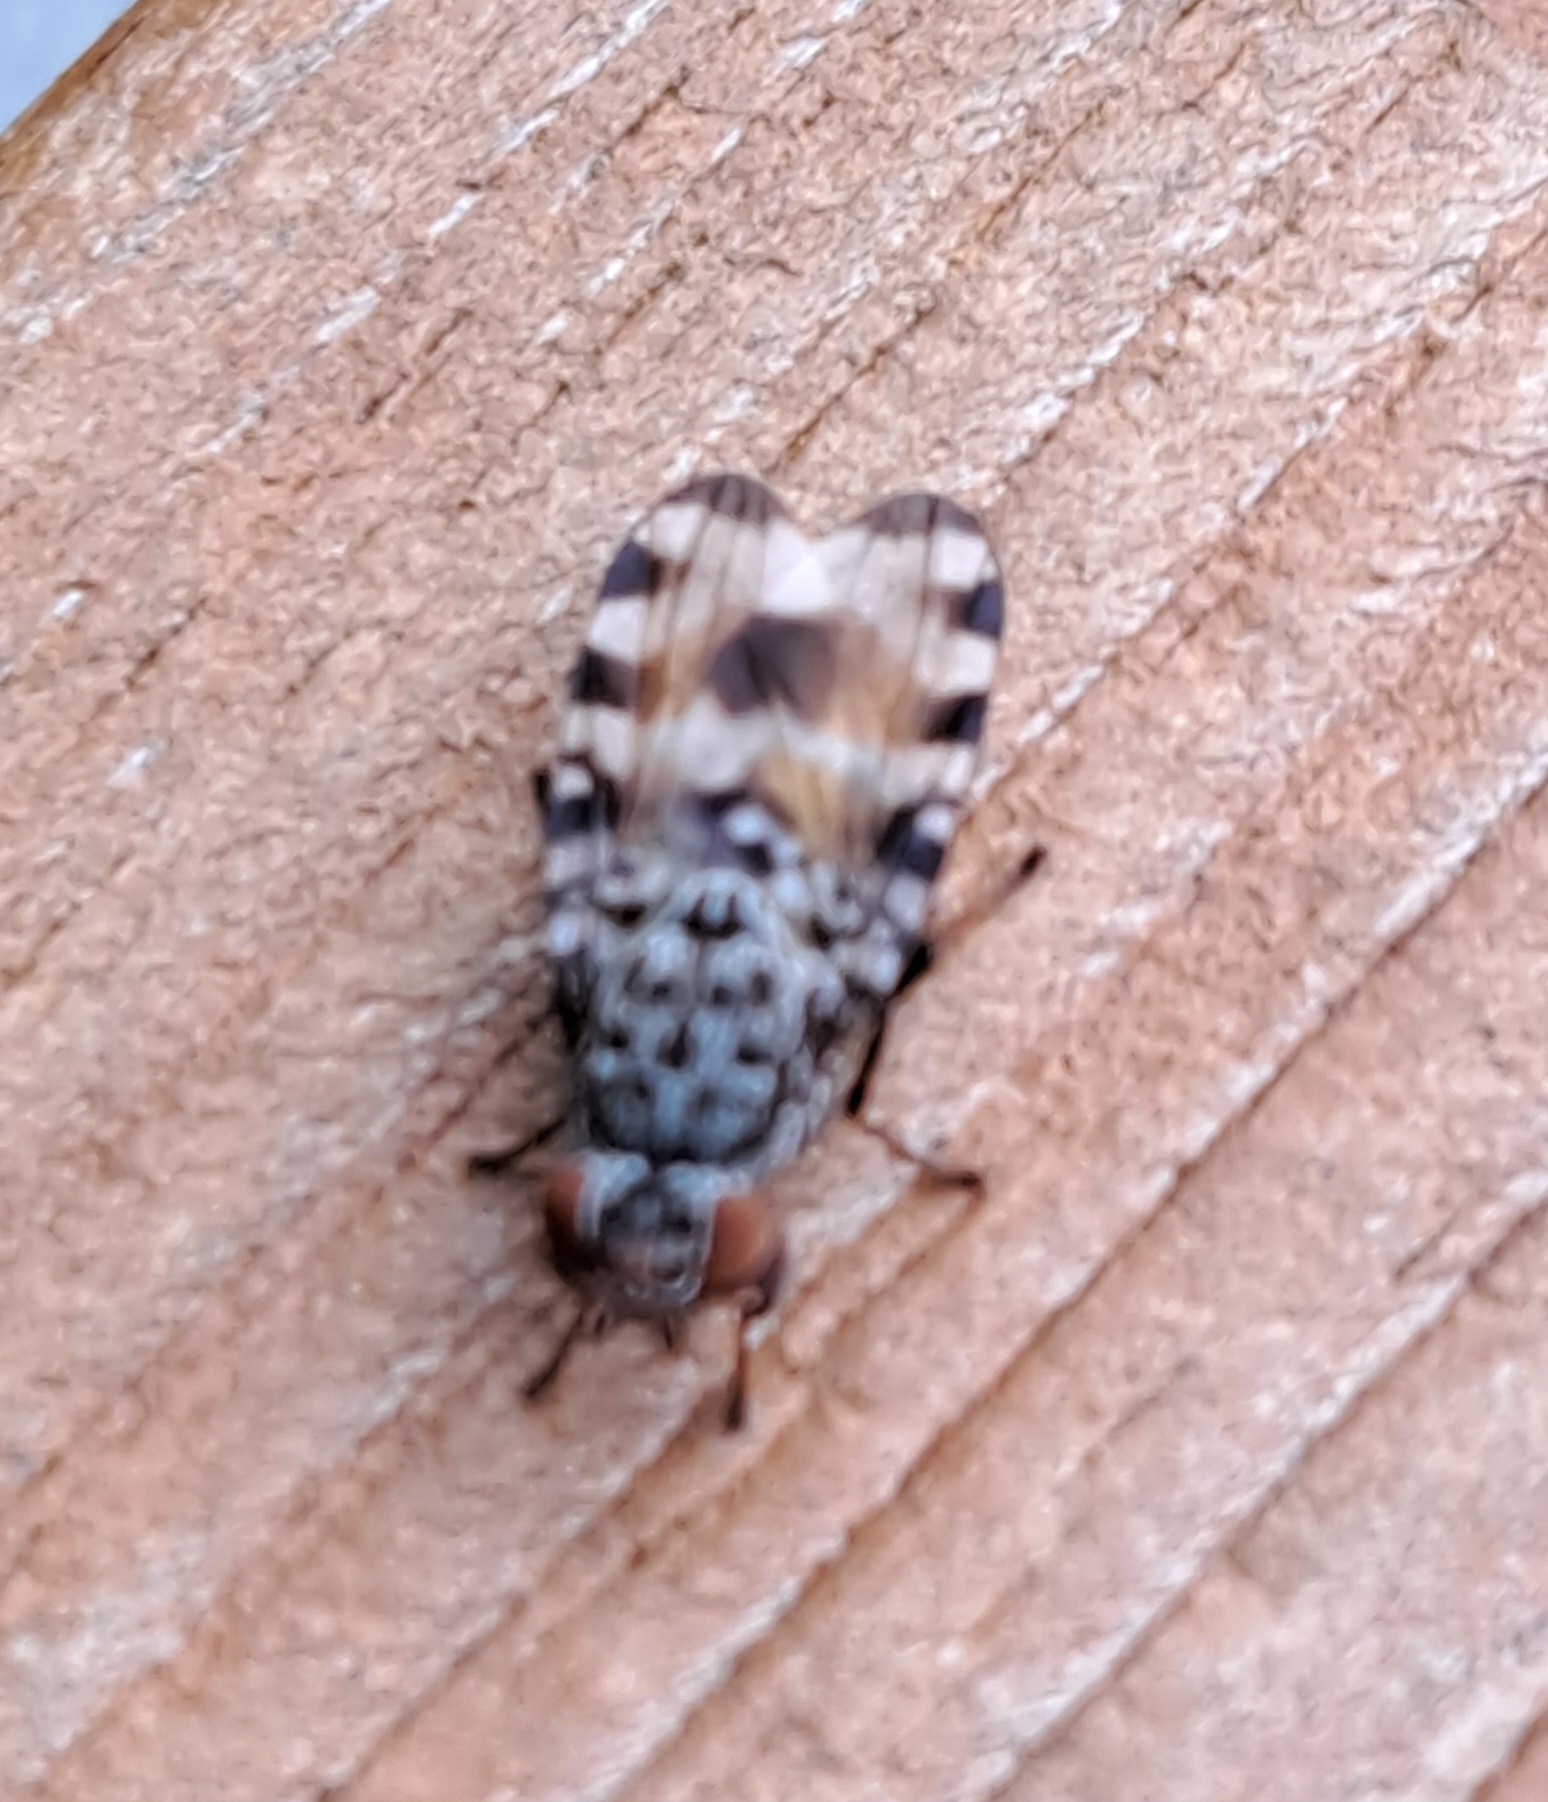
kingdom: Animalia
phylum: Arthropoda
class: Insecta
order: Diptera
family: Ulidiidae
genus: Pseudotephritis
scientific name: Pseudotephritis vau
